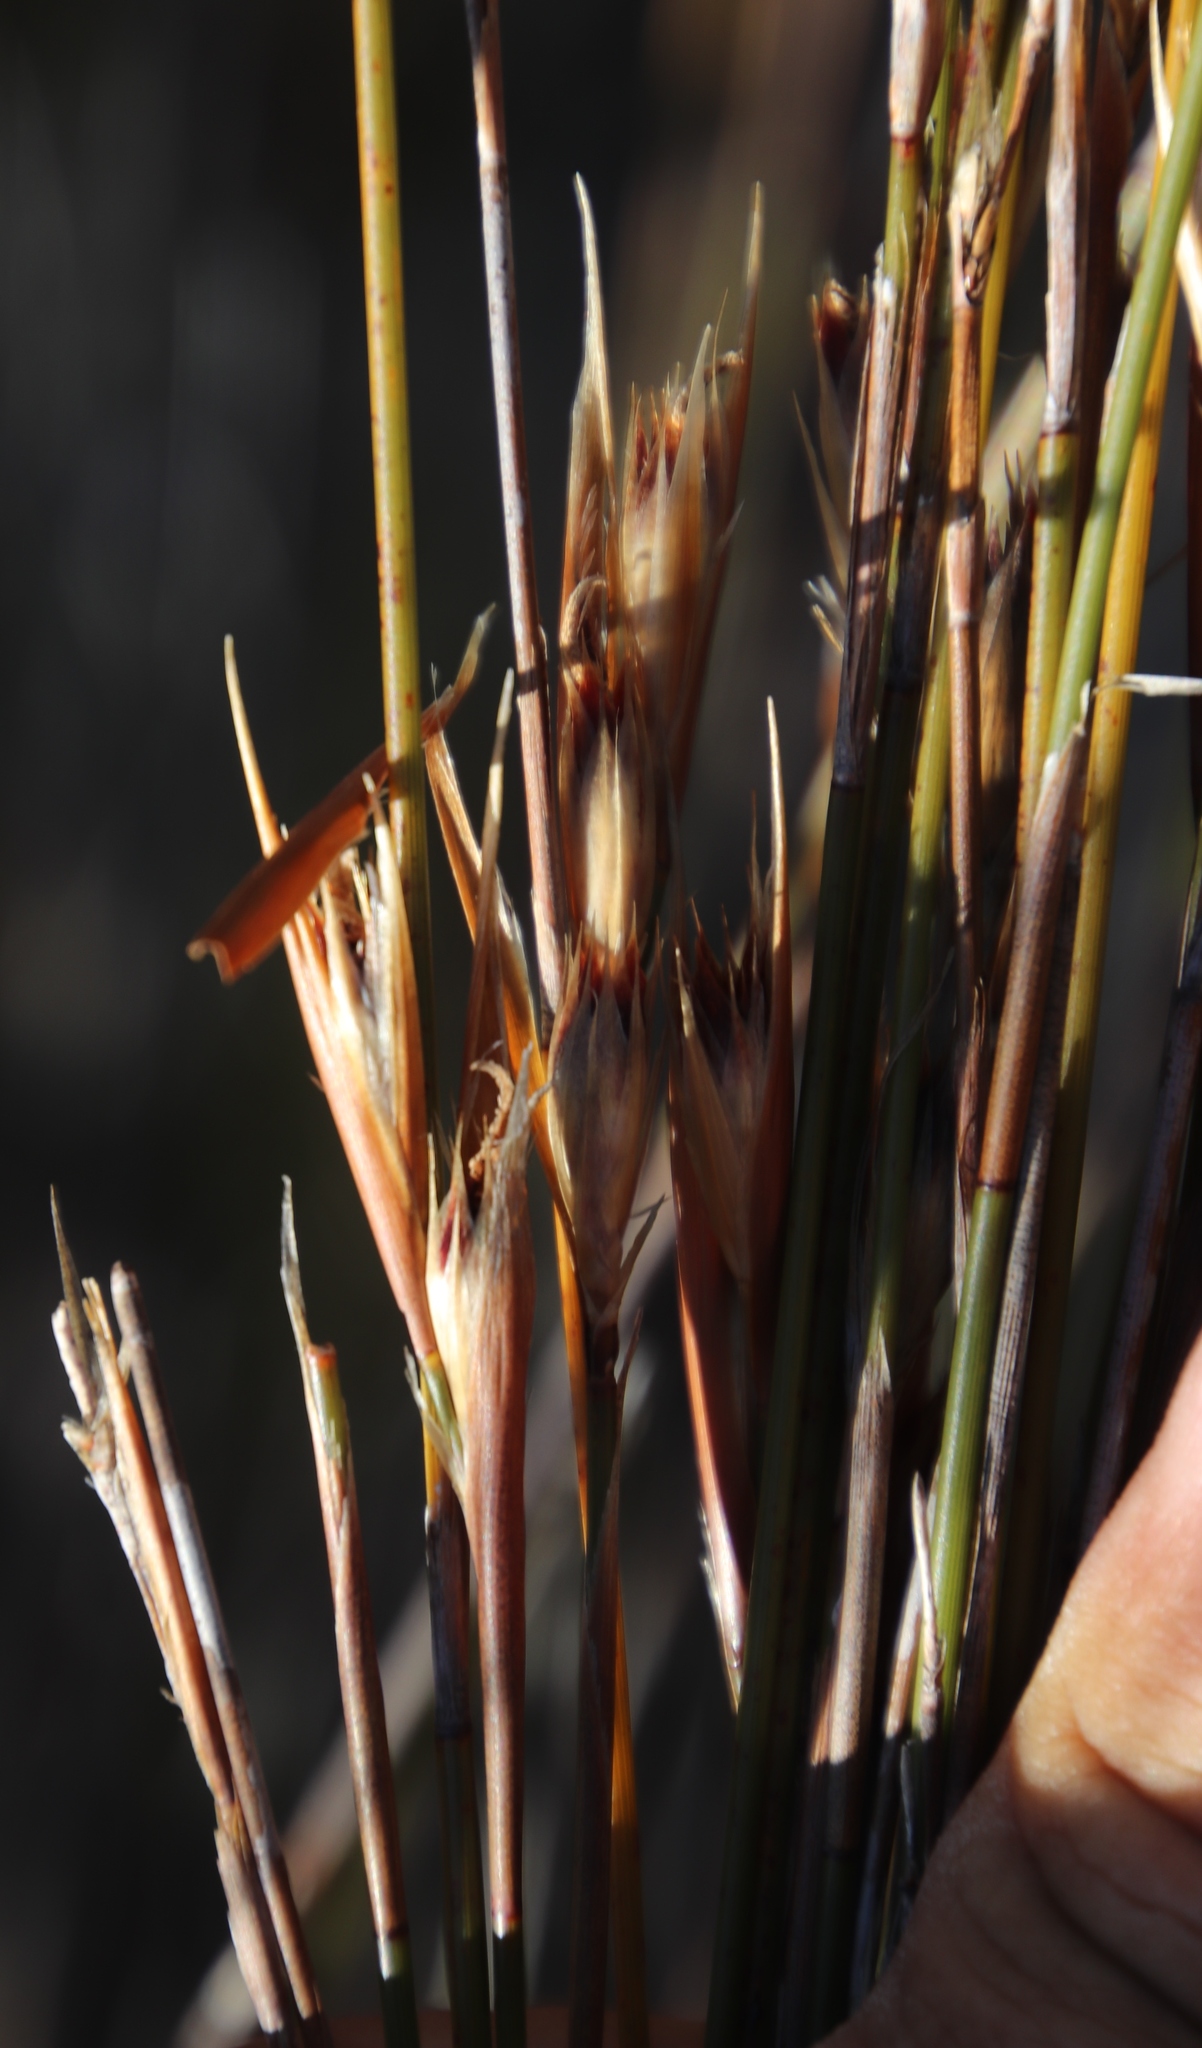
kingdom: Plantae
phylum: Tracheophyta
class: Liliopsida
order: Poales
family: Restionaceae
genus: Hypodiscus
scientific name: Hypodiscus argenteus
